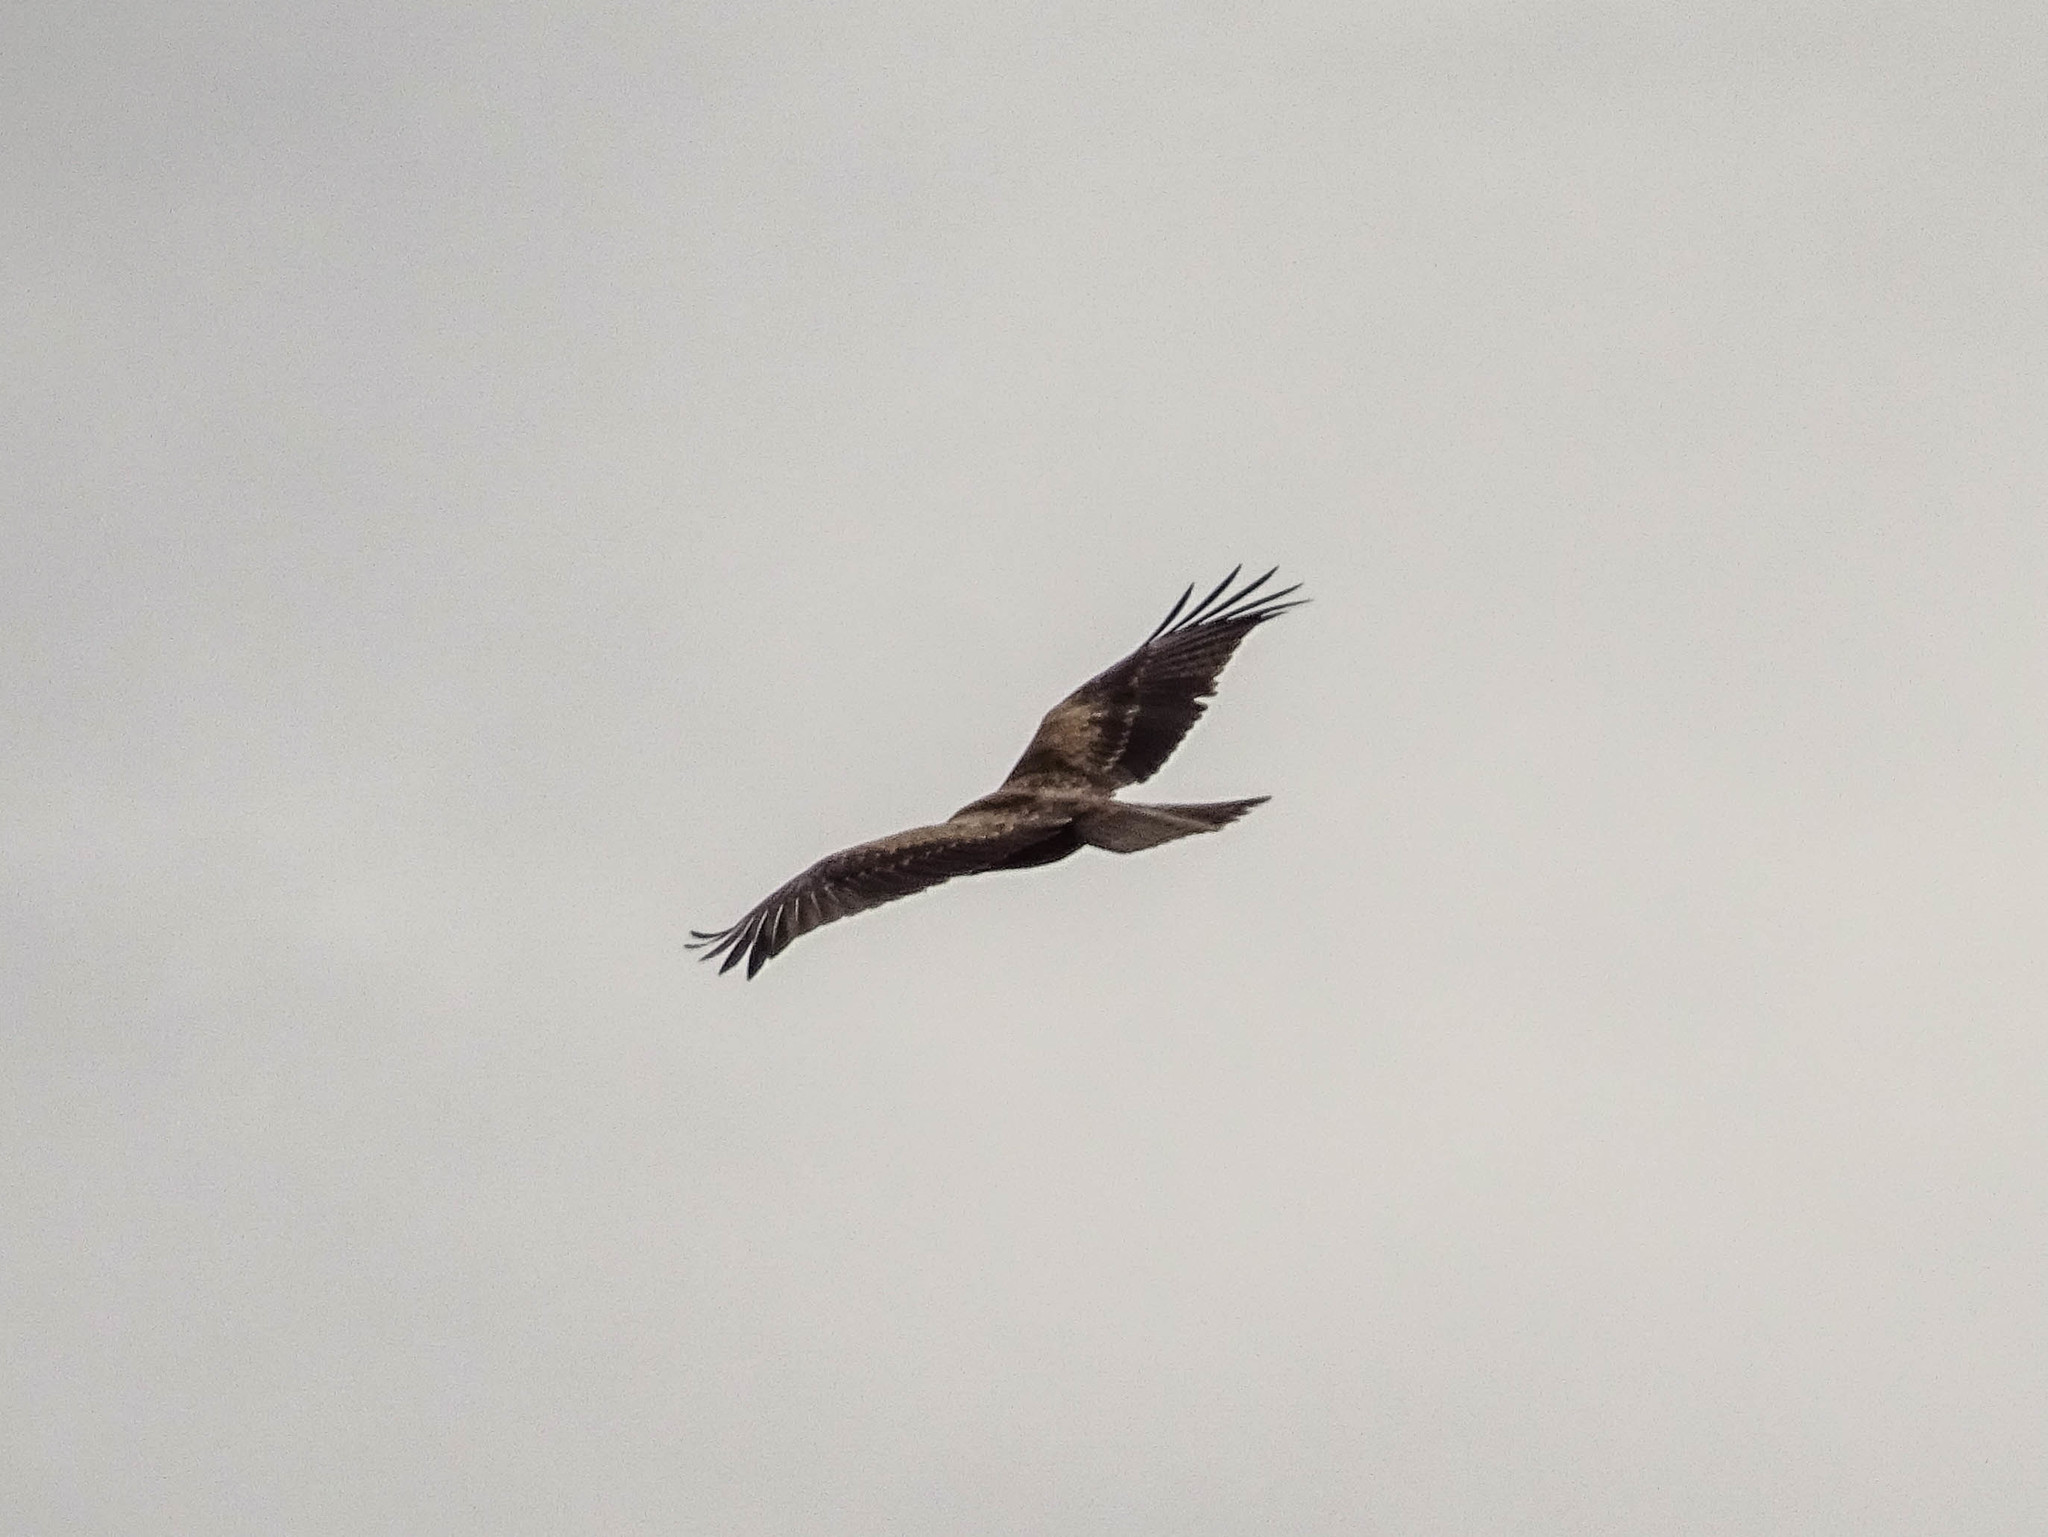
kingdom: Animalia
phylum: Chordata
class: Aves
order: Accipitriformes
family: Accipitridae
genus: Milvus
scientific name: Milvus migrans
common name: Black kite
